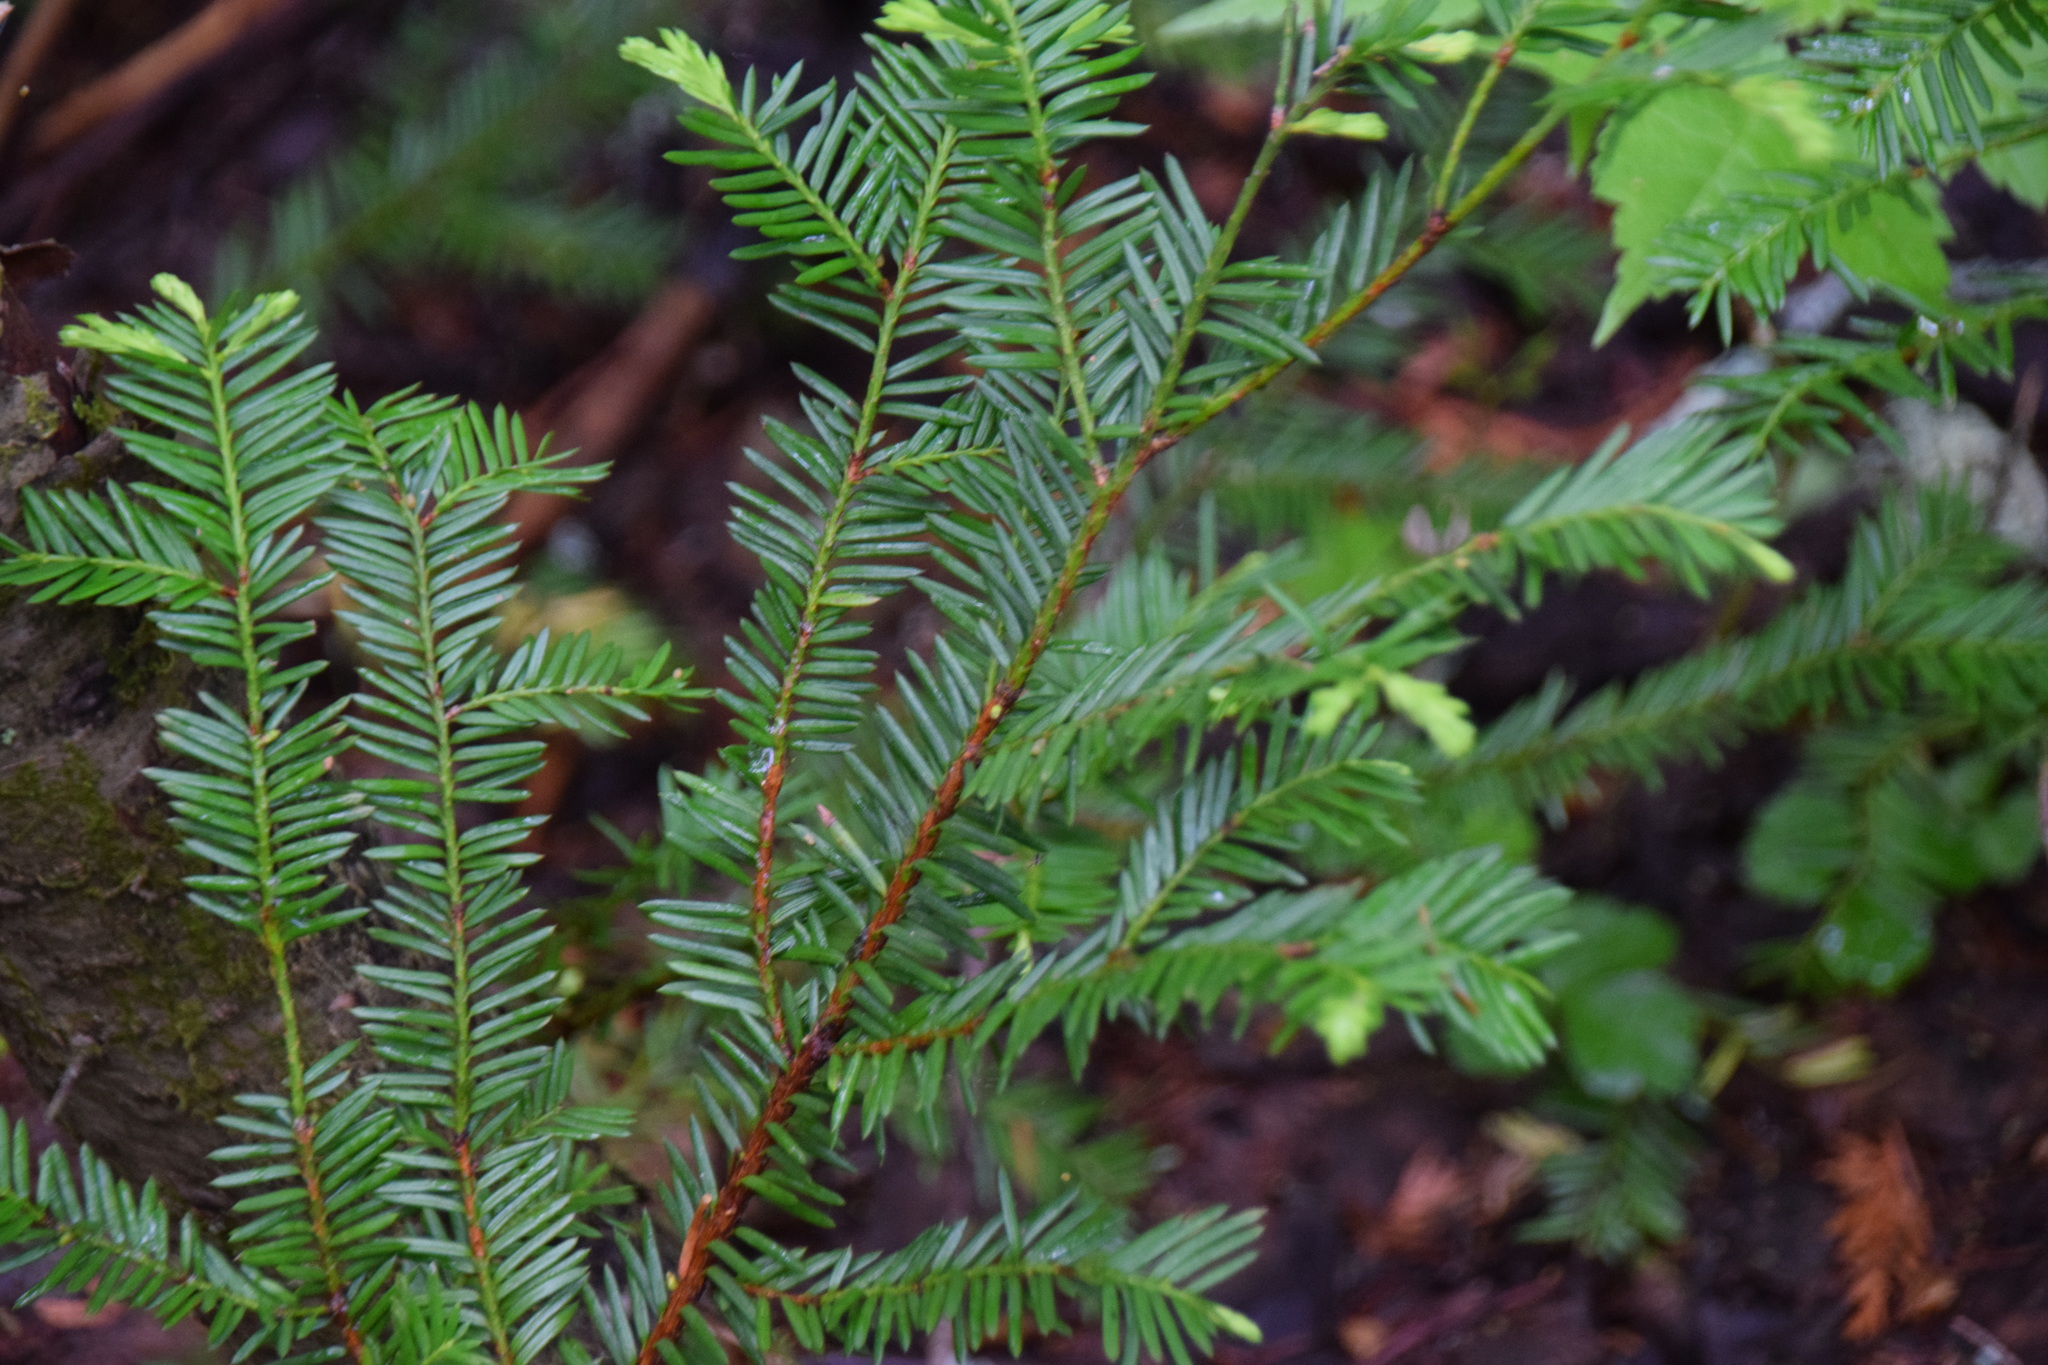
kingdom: Plantae
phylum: Tracheophyta
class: Pinopsida
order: Pinales
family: Taxaceae
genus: Taxus
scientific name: Taxus canadensis
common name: American yew
